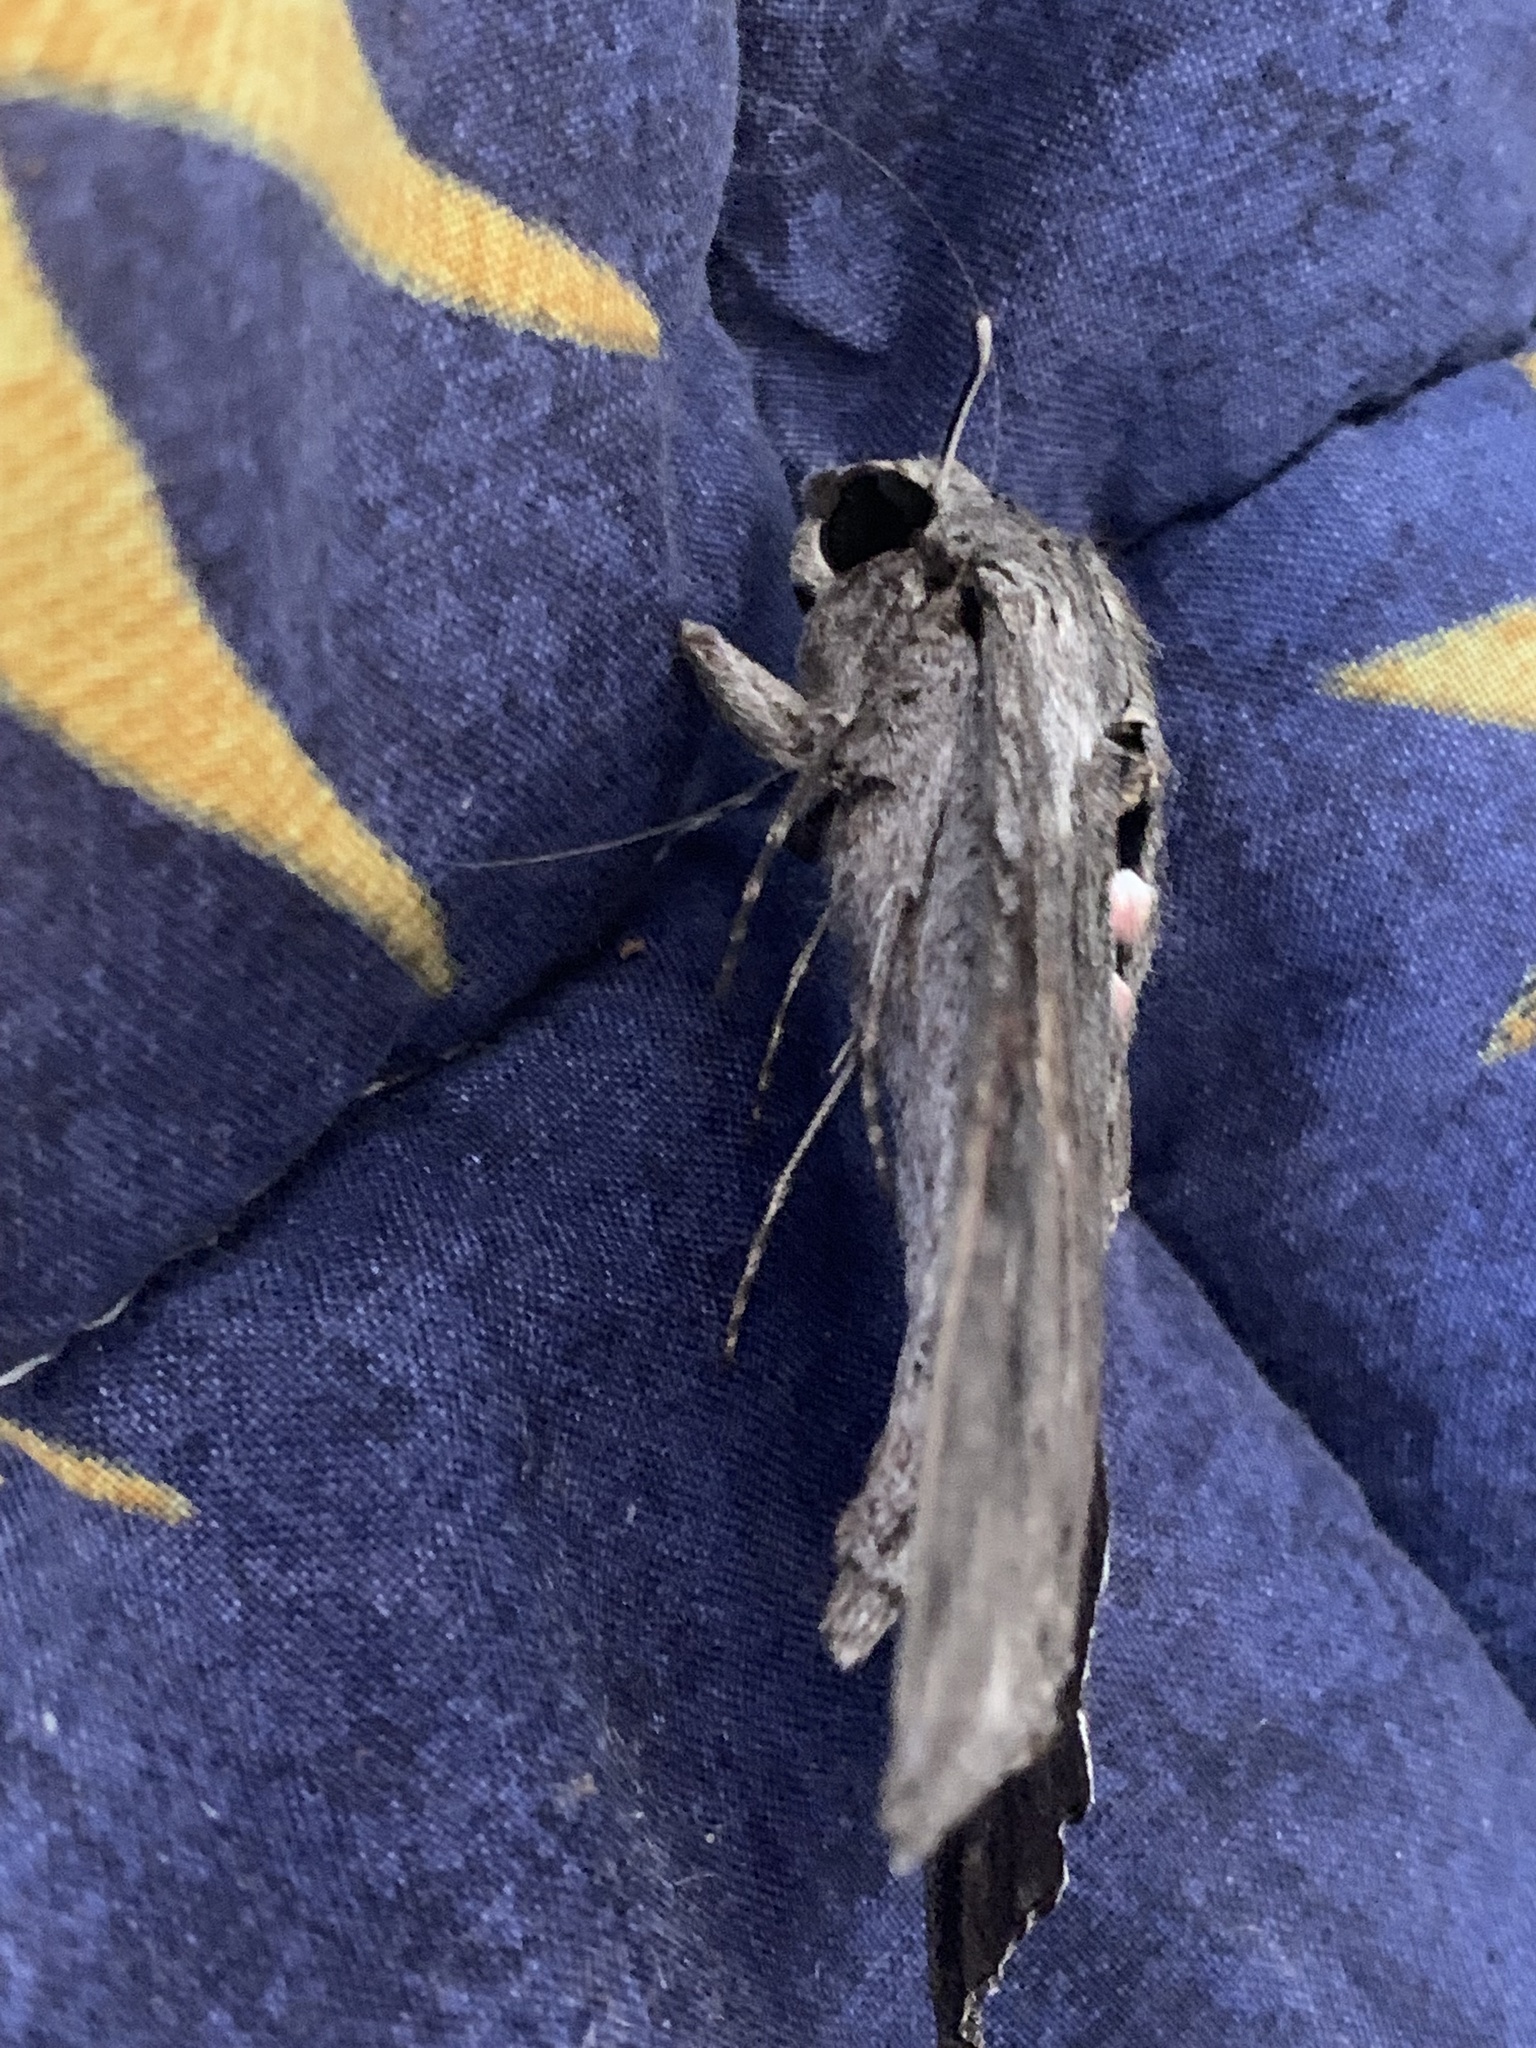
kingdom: Animalia
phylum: Arthropoda
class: Insecta
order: Lepidoptera
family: Sphingidae
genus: Agrius
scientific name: Agrius convolvuli
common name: Convolvulus hawkmoth
